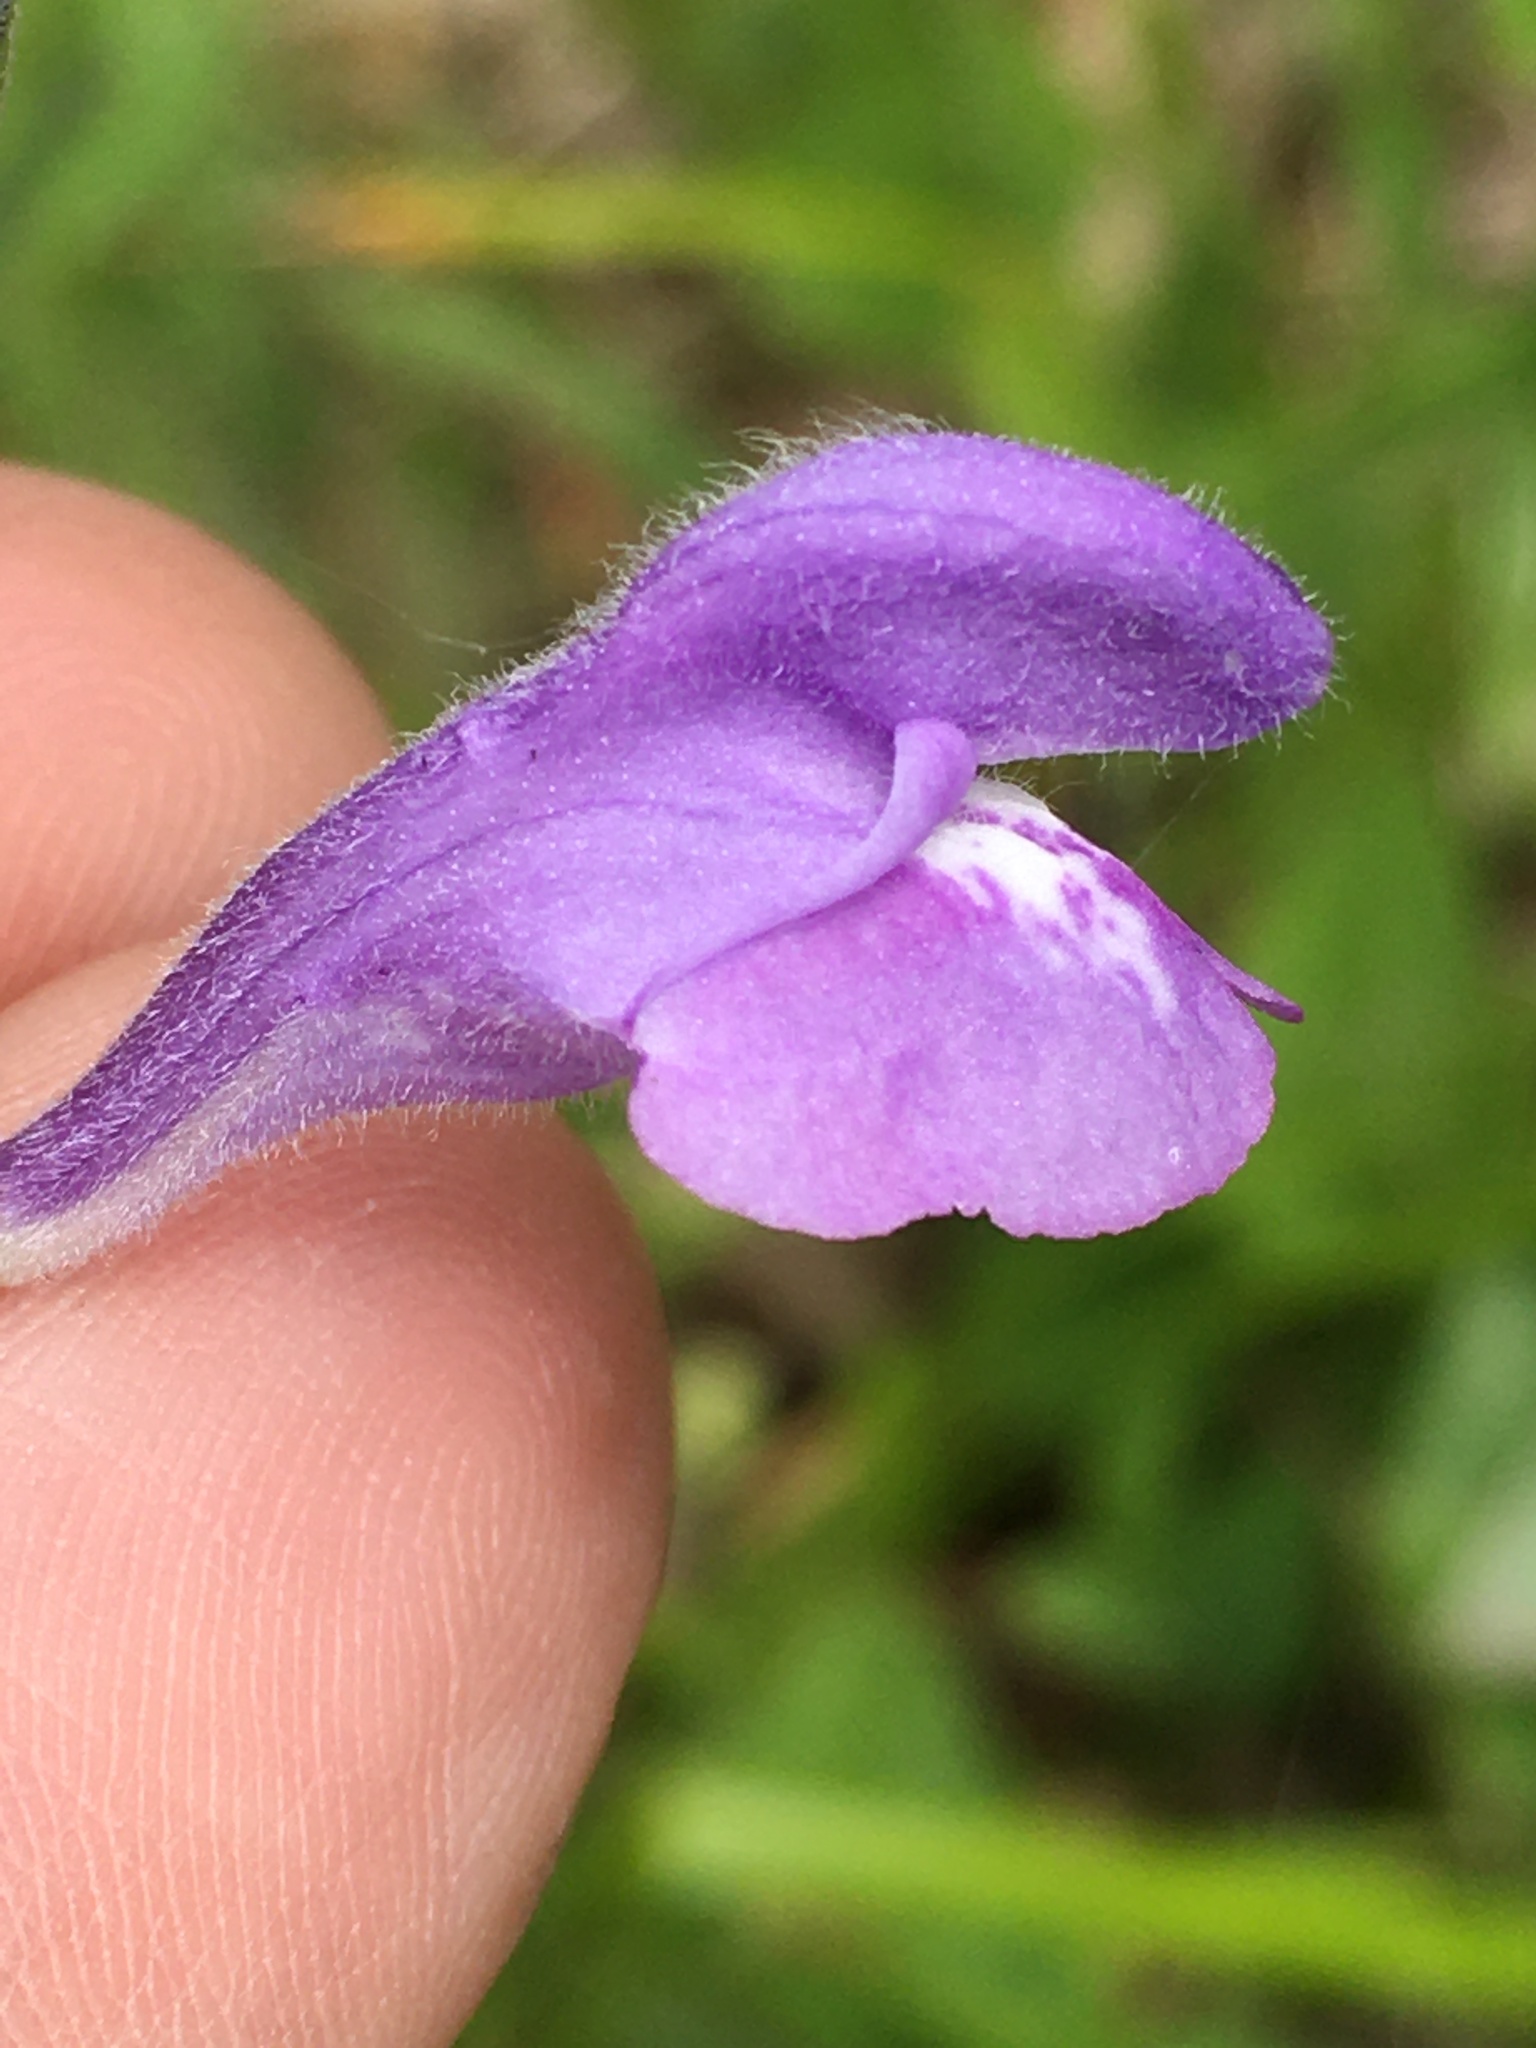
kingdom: Plantae
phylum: Tracheophyta
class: Magnoliopsida
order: Lamiales
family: Lamiaceae
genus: Scutellaria
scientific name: Scutellaria integrifolia
